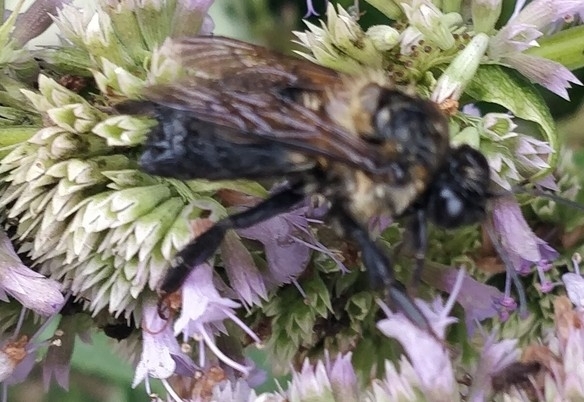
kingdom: Animalia
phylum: Arthropoda
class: Insecta
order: Hymenoptera
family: Apidae
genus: Bombus
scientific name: Bombus griseocollis
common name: Brown-belted bumble bee
